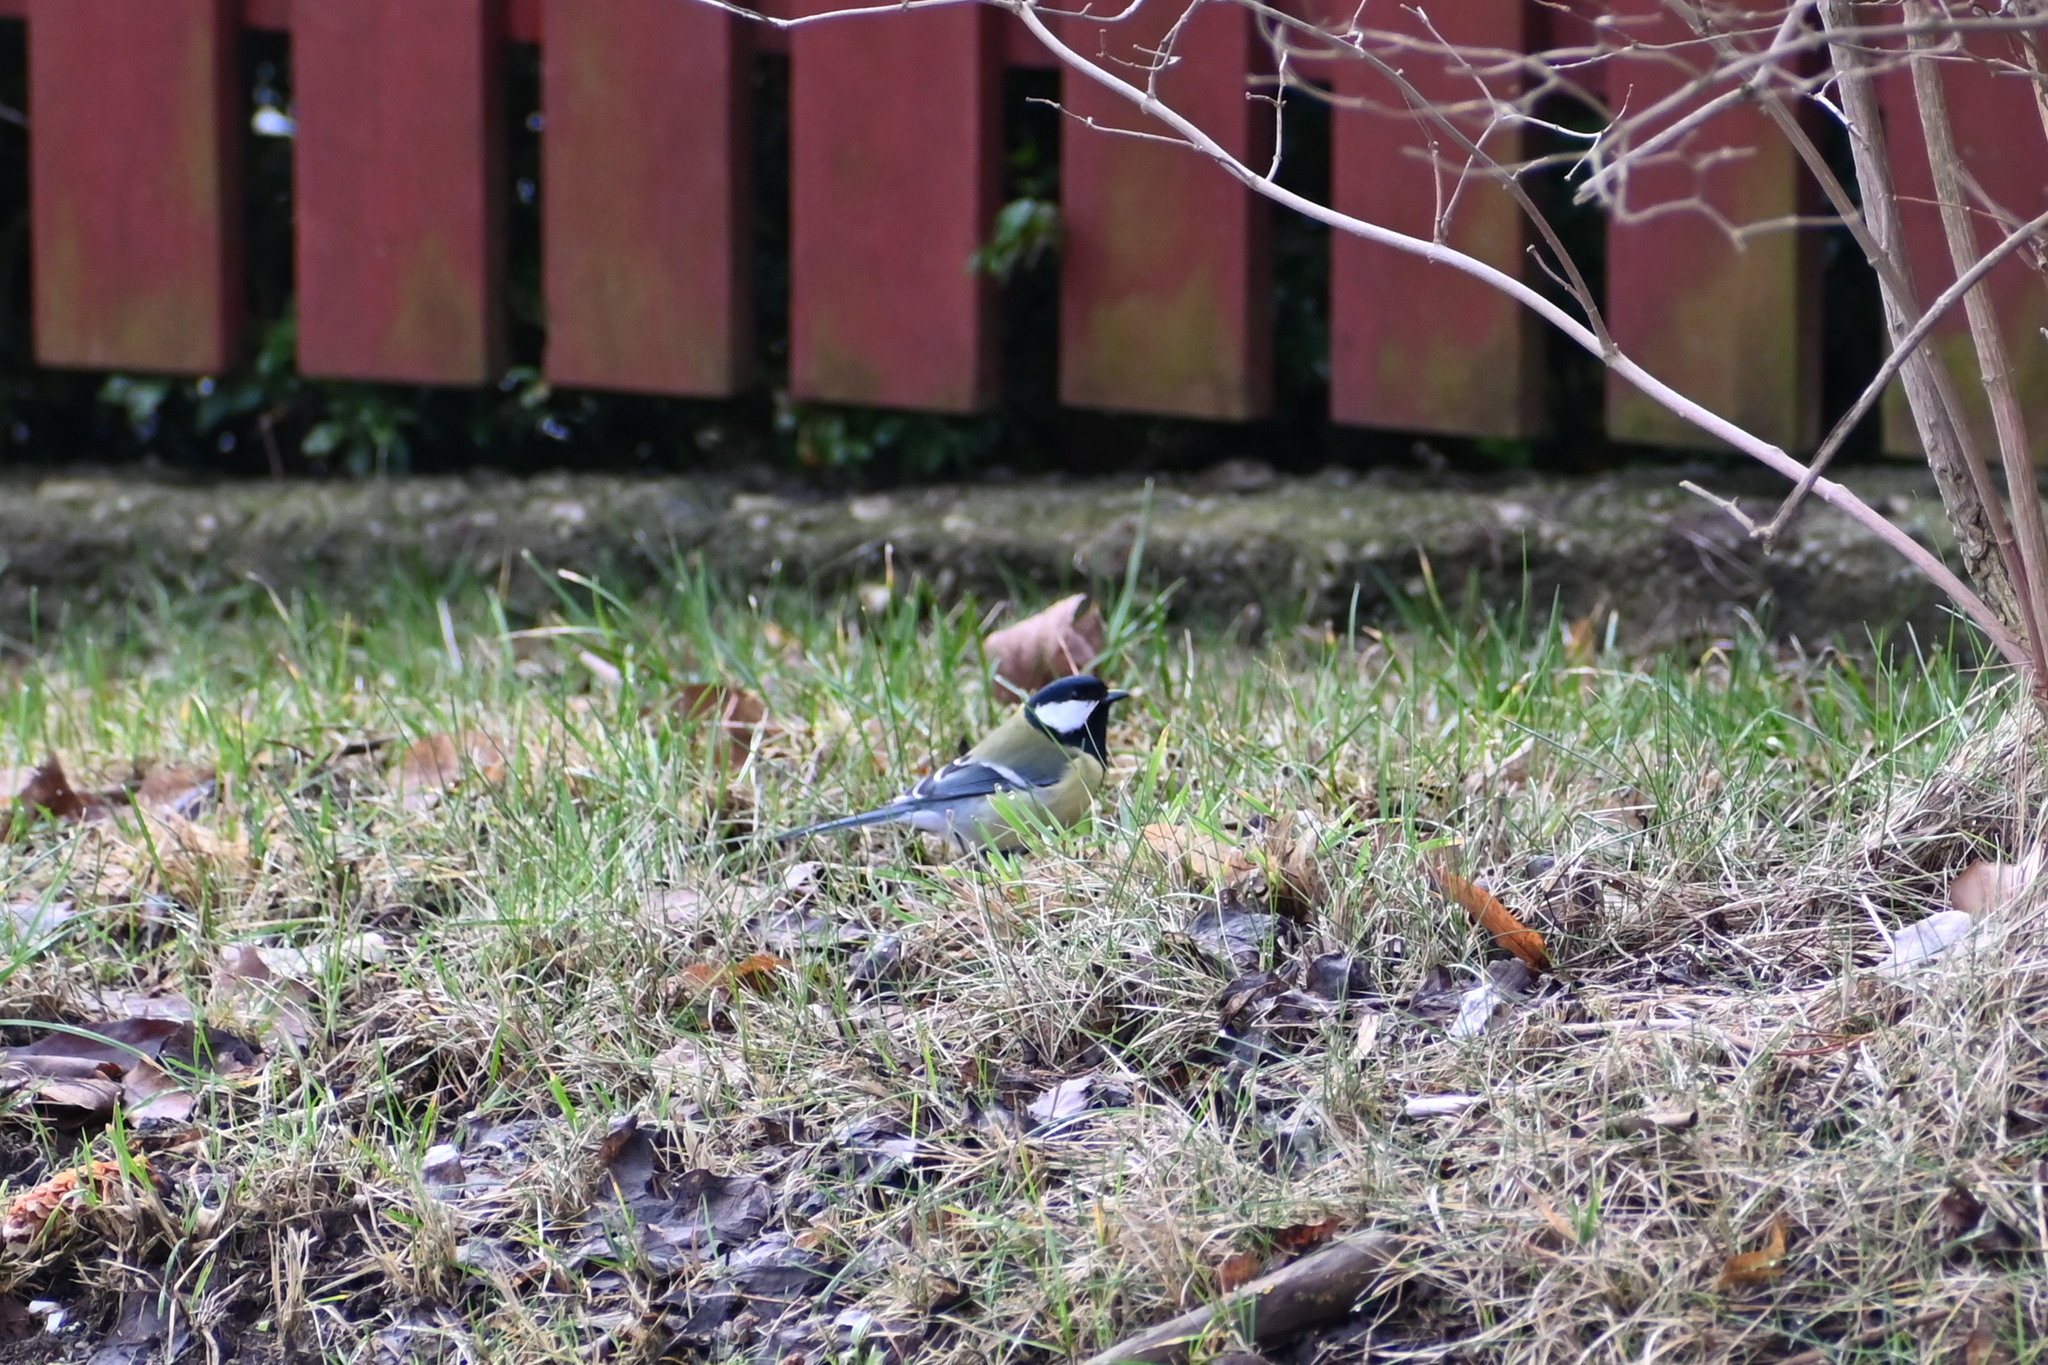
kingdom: Animalia
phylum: Chordata
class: Aves
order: Passeriformes
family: Paridae
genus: Parus
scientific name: Parus major
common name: Great tit
